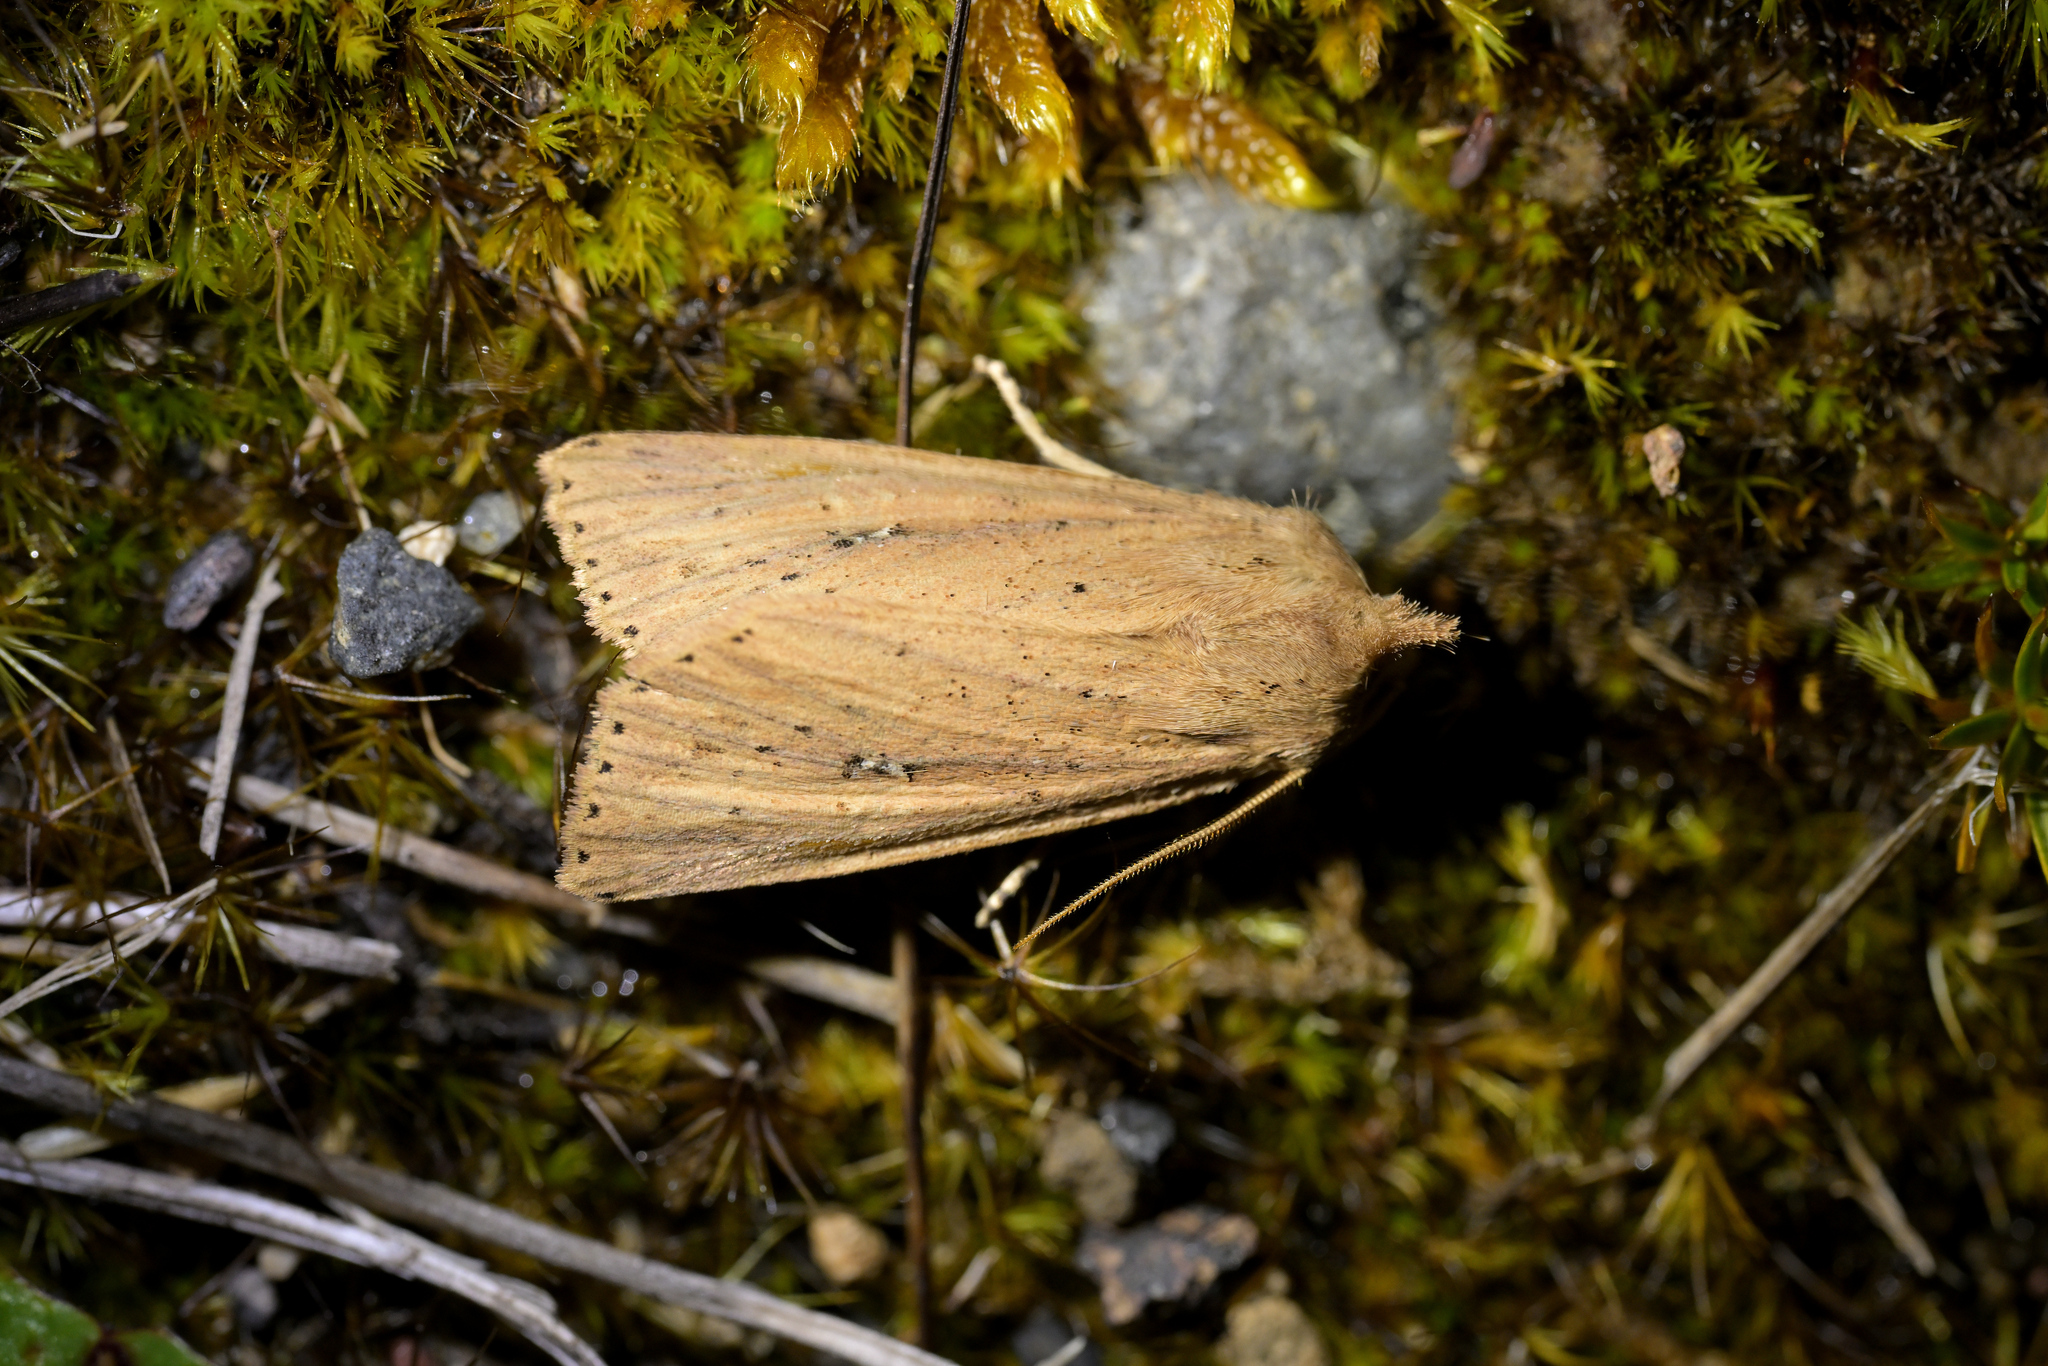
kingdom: Animalia
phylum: Arthropoda
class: Insecta
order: Lepidoptera
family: Noctuidae
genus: Ichneutica
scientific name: Ichneutica
